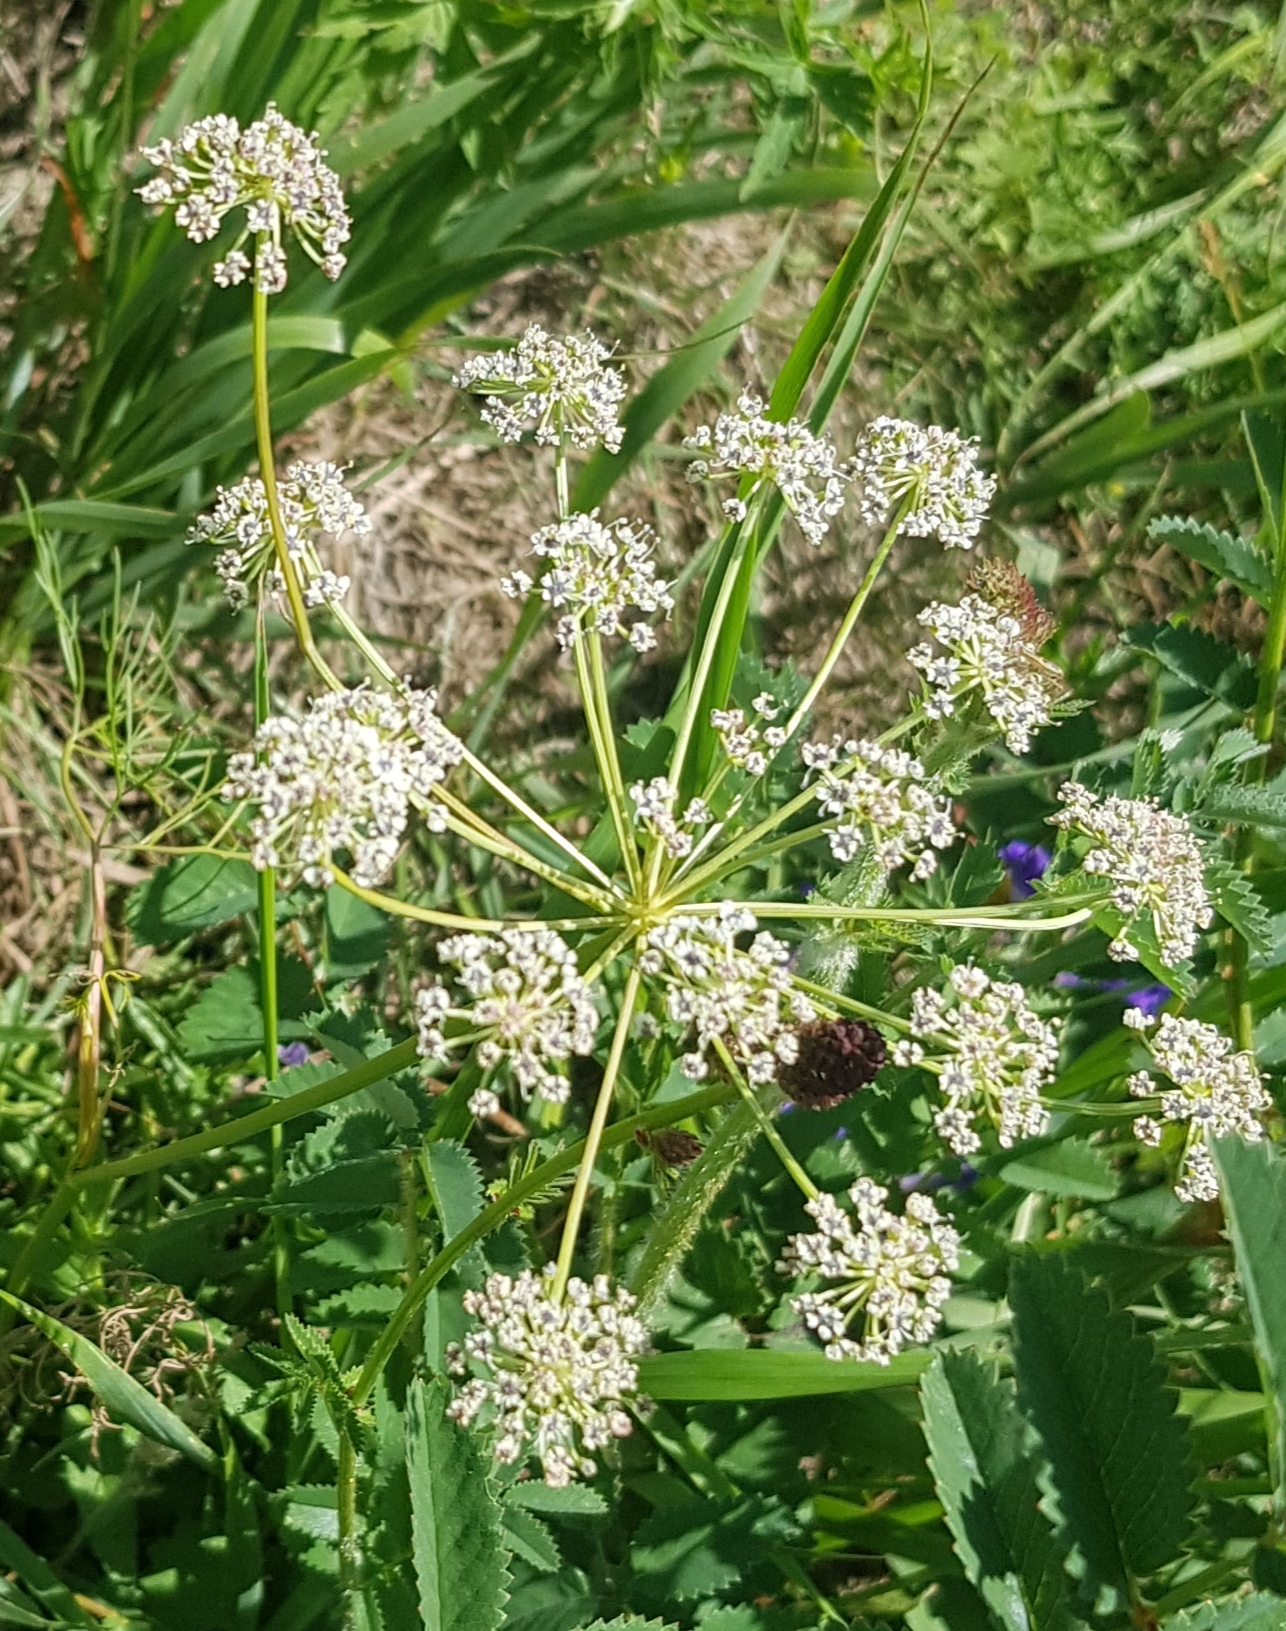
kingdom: Plantae
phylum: Tracheophyta
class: Magnoliopsida
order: Apiales
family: Apiaceae
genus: Cicuta
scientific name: Cicuta virosa
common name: Cowbane
